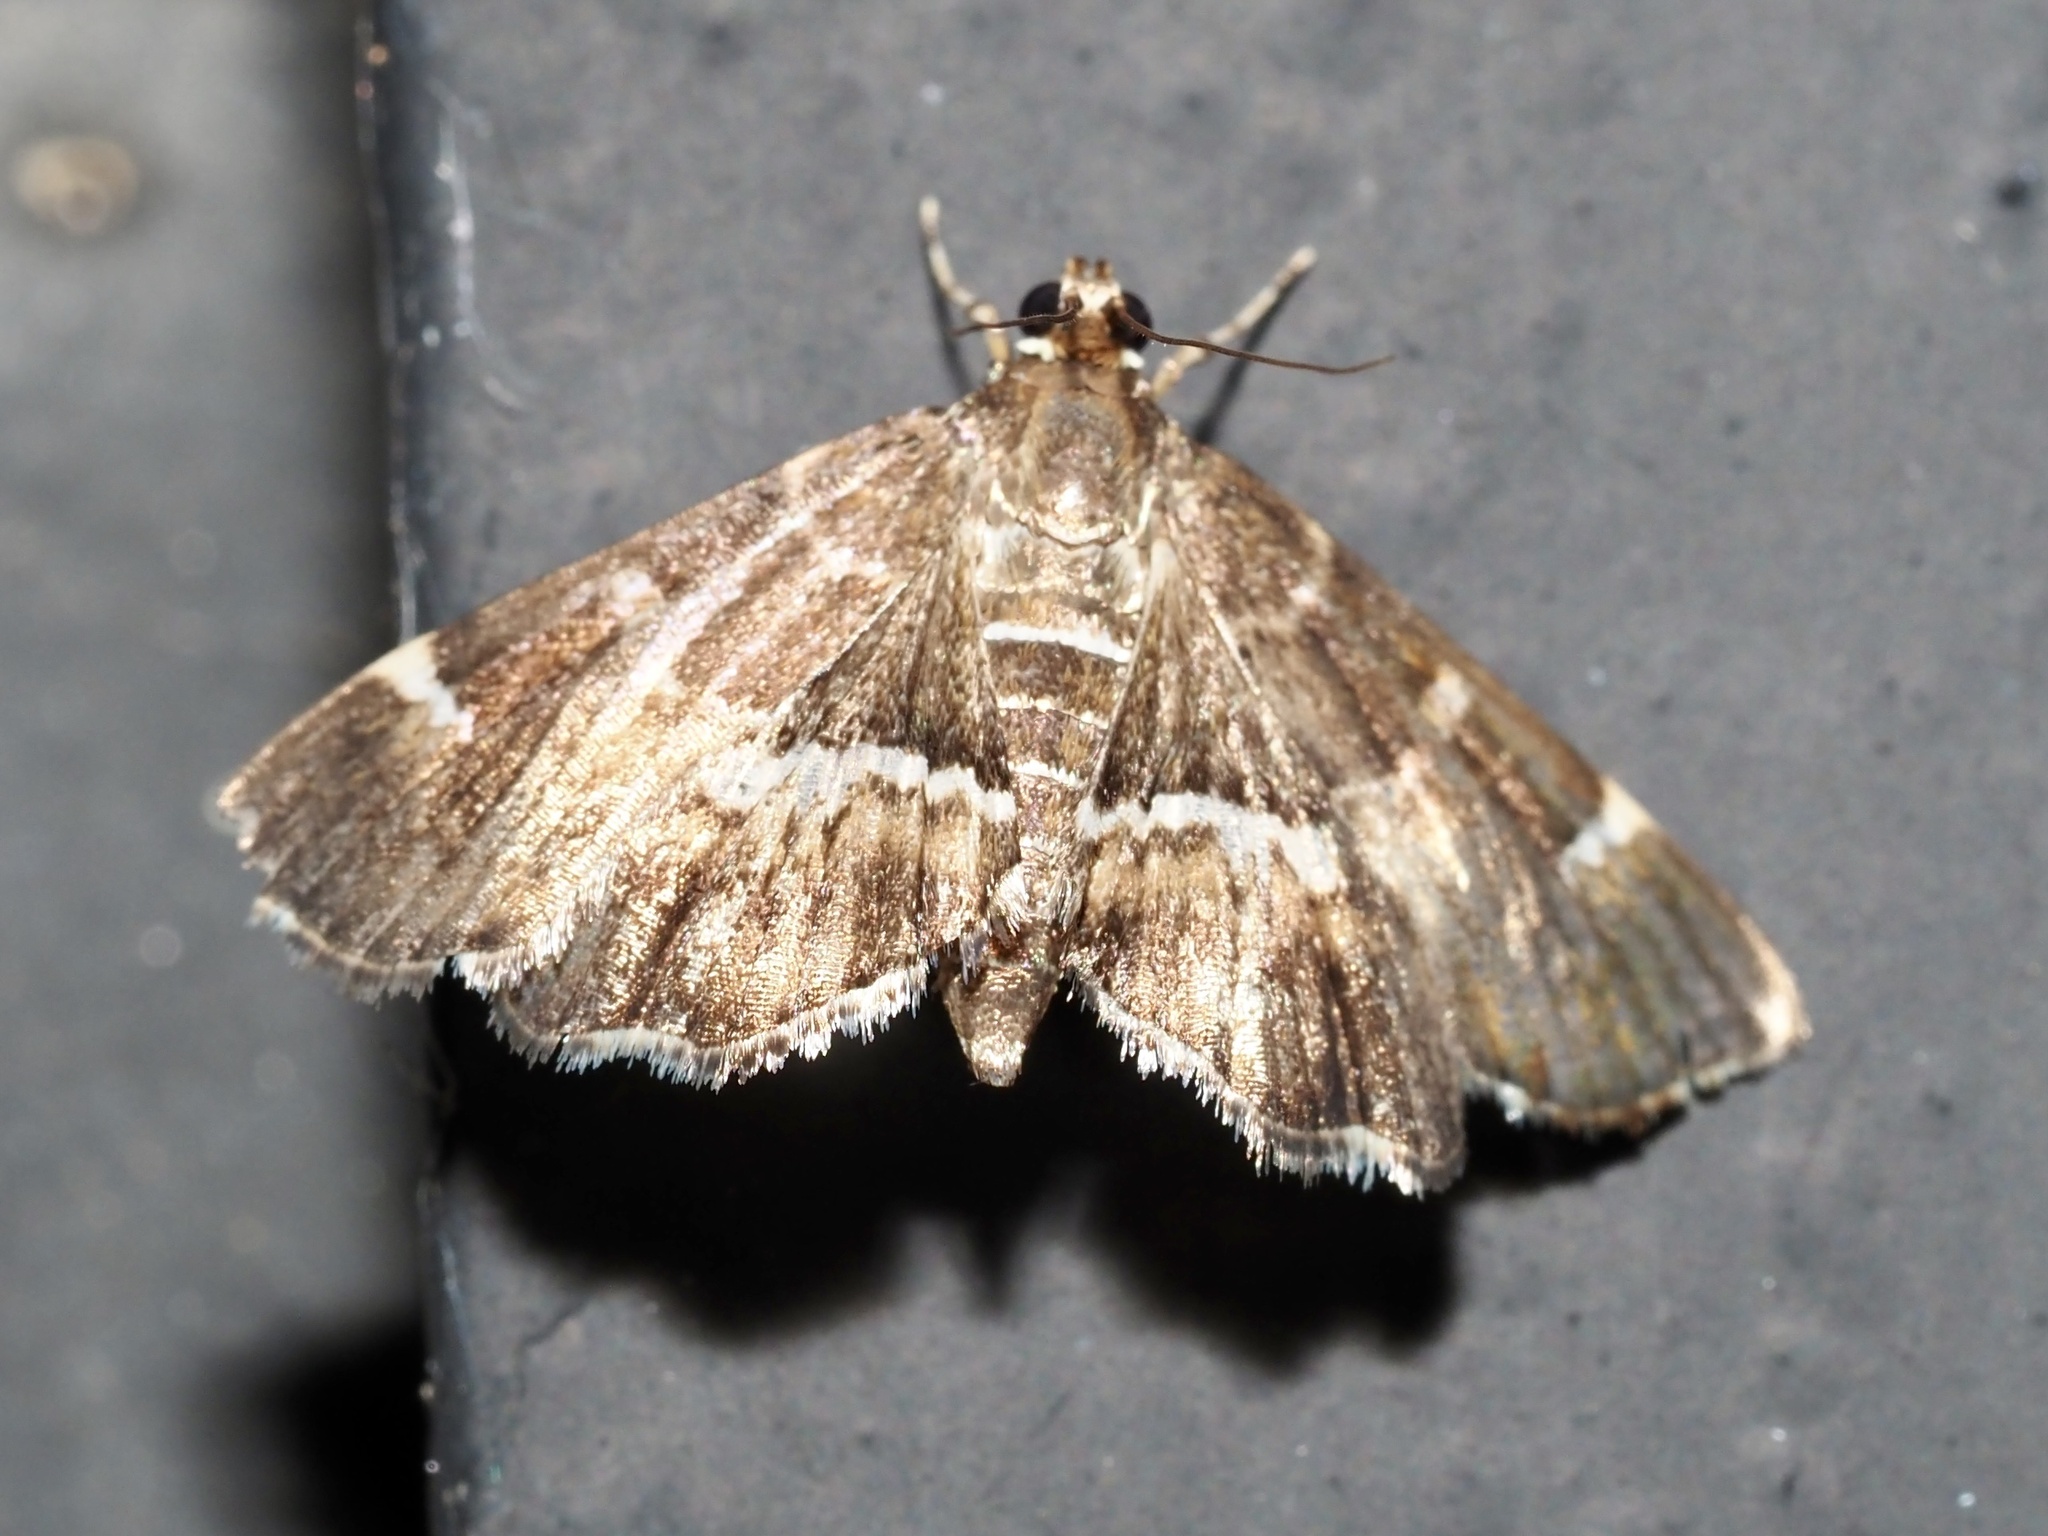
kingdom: Animalia
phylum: Arthropoda
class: Insecta
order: Lepidoptera
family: Crambidae
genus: Hymenia
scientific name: Hymenia perspectalis
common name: Spotted beet webworm
